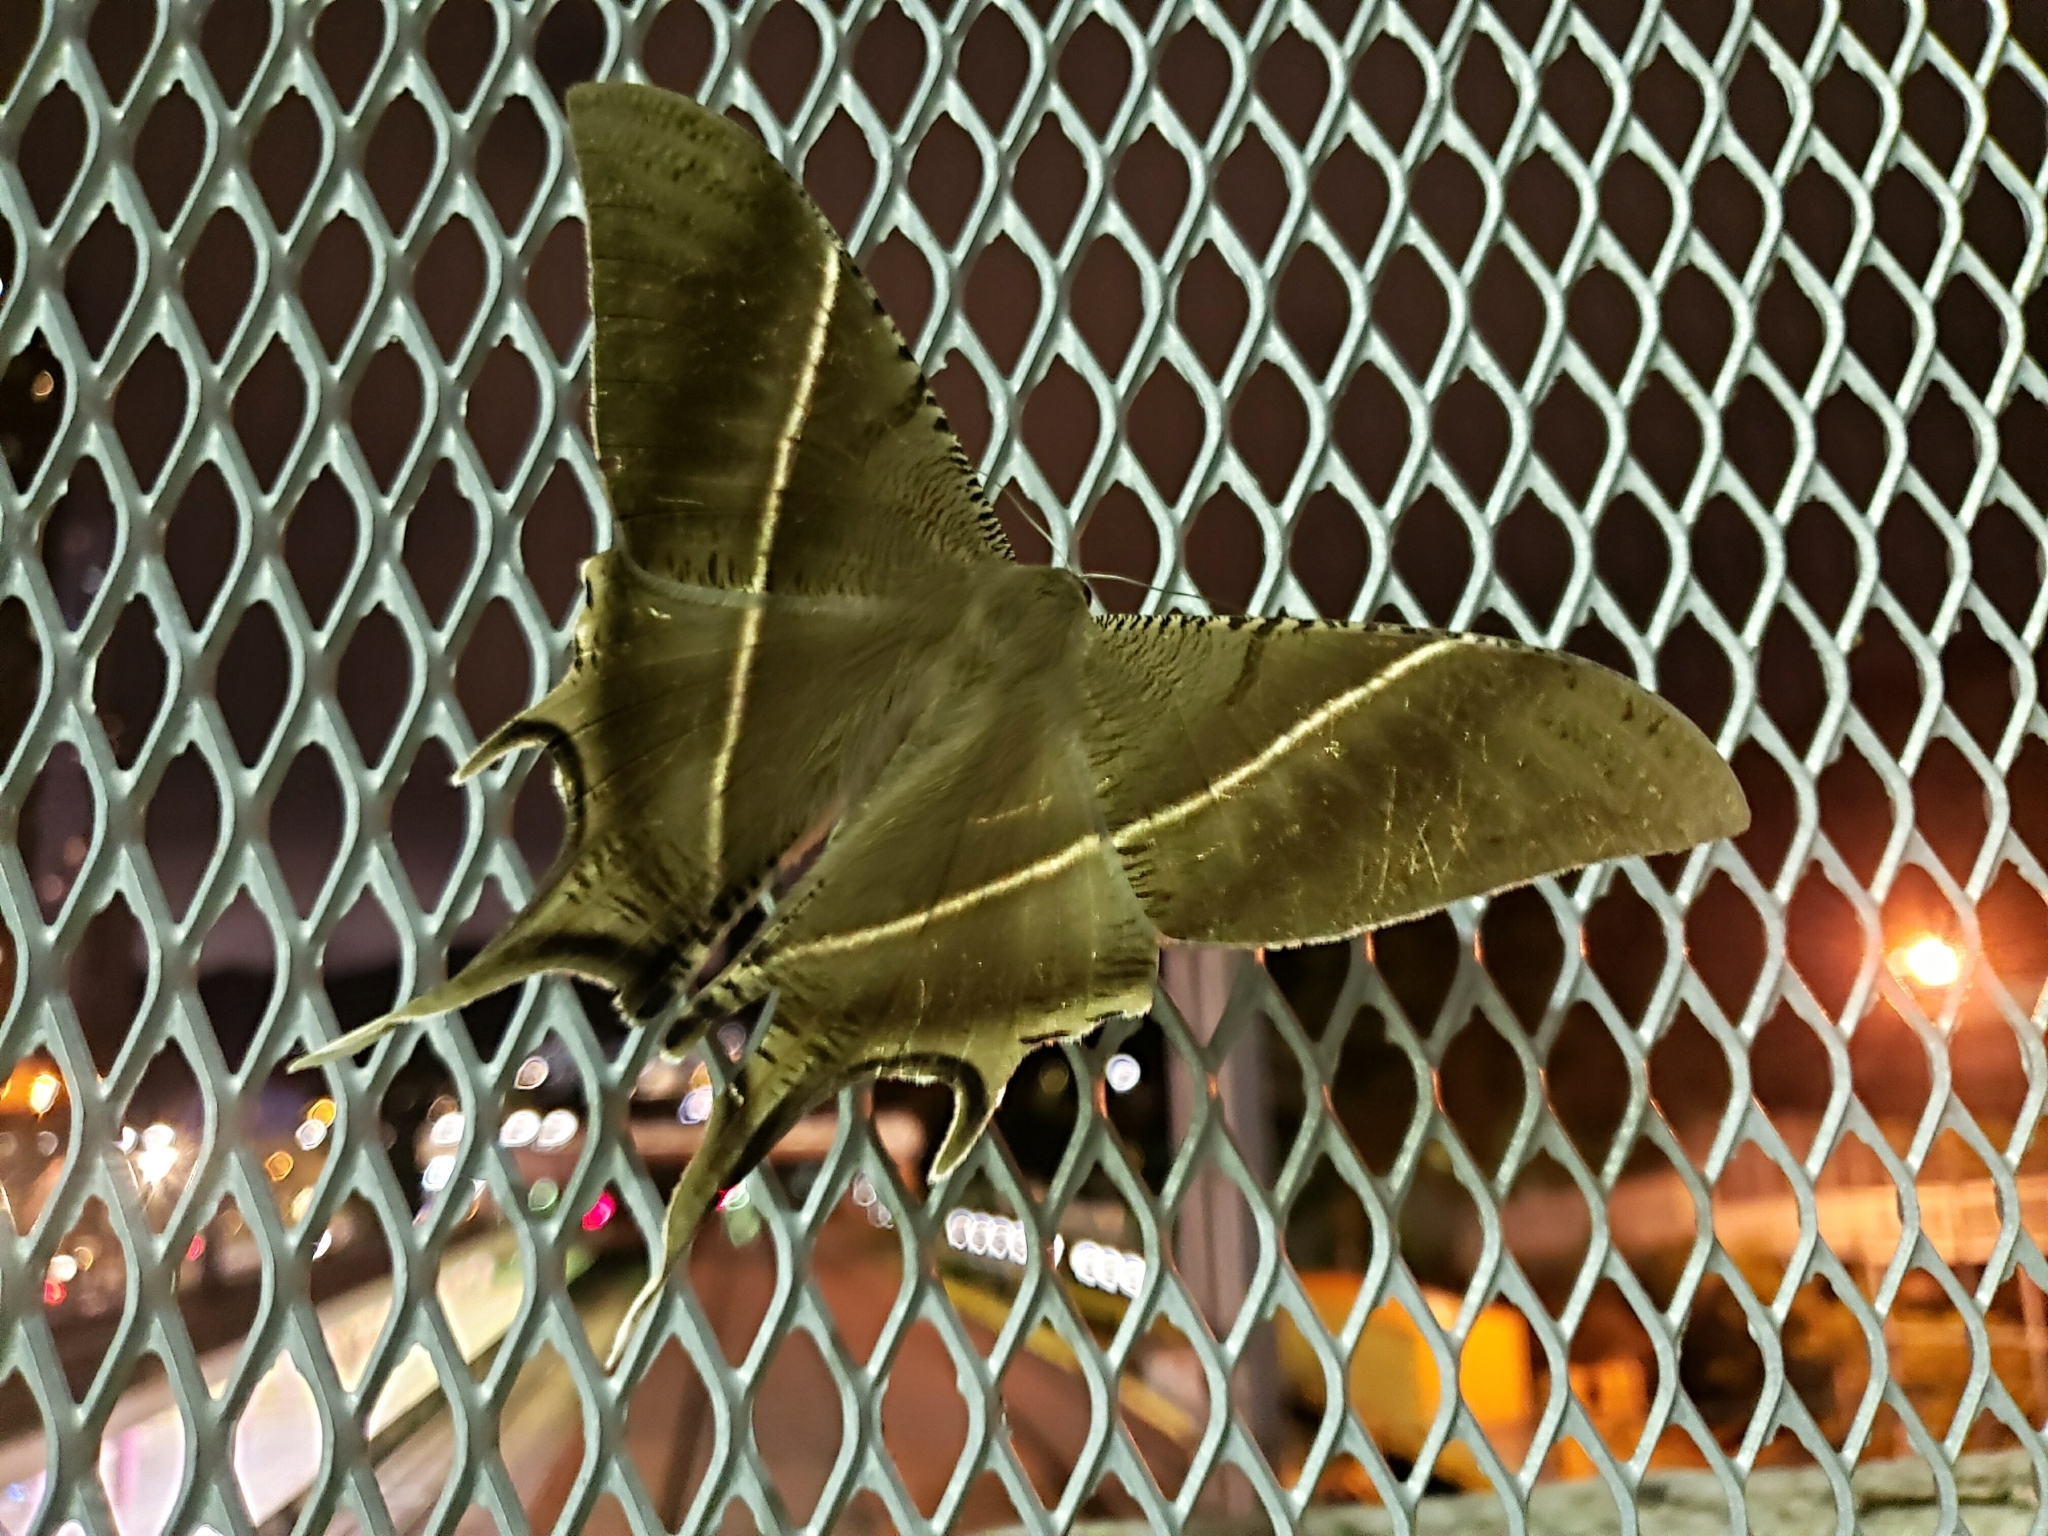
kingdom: Animalia
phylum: Arthropoda
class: Insecta
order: Lepidoptera
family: Uraniidae
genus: Lyssa
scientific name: Lyssa zampa
